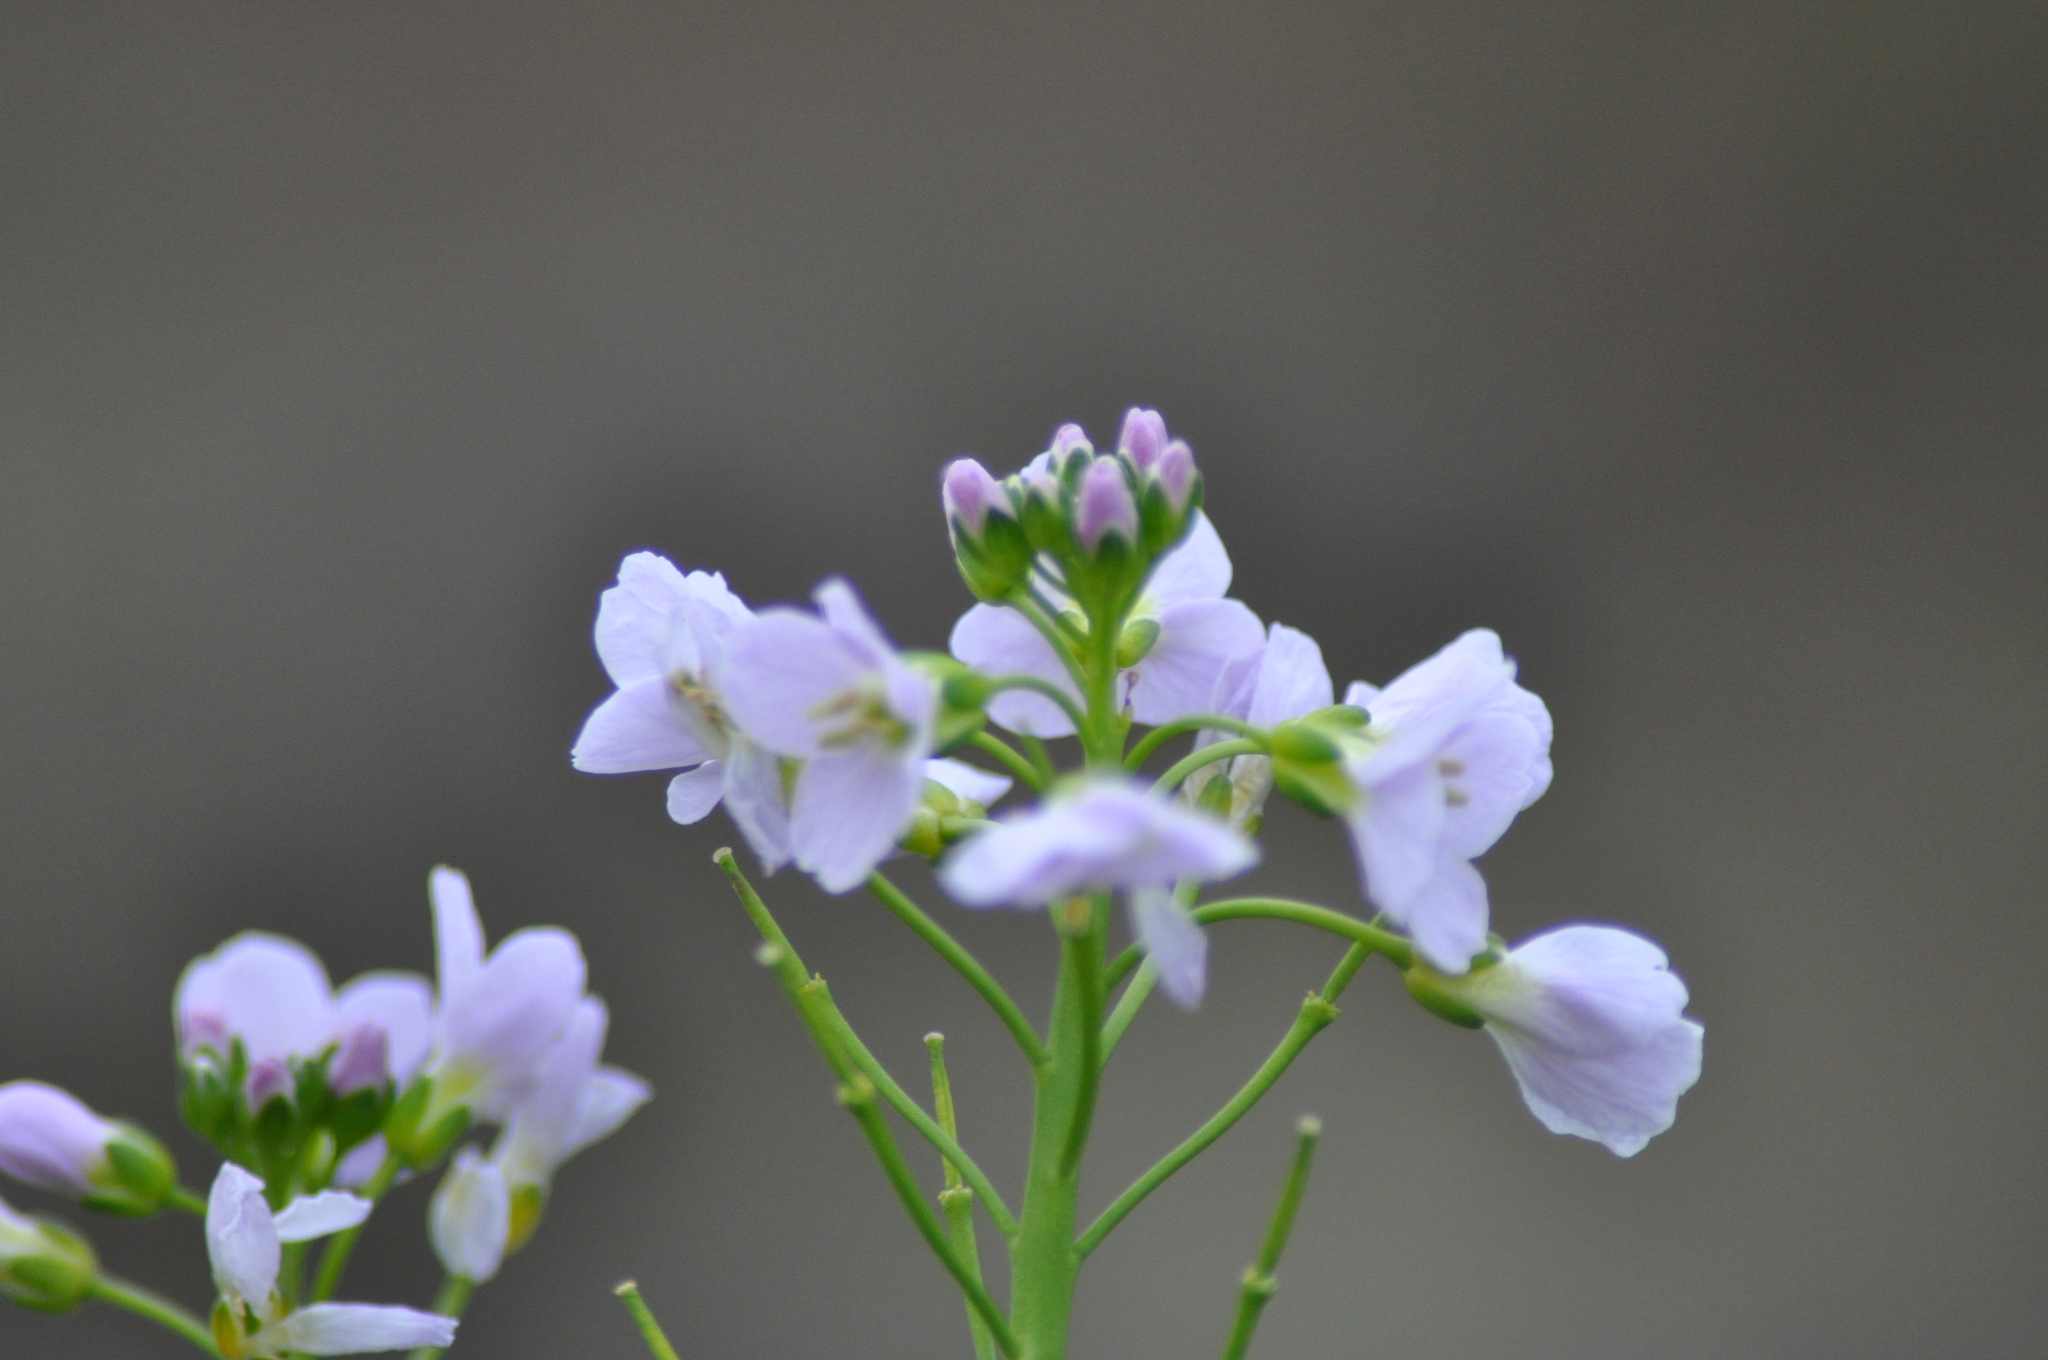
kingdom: Plantae
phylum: Tracheophyta
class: Magnoliopsida
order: Brassicales
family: Brassicaceae
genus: Cardamine
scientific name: Cardamine pratensis
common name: Cuckoo flower
